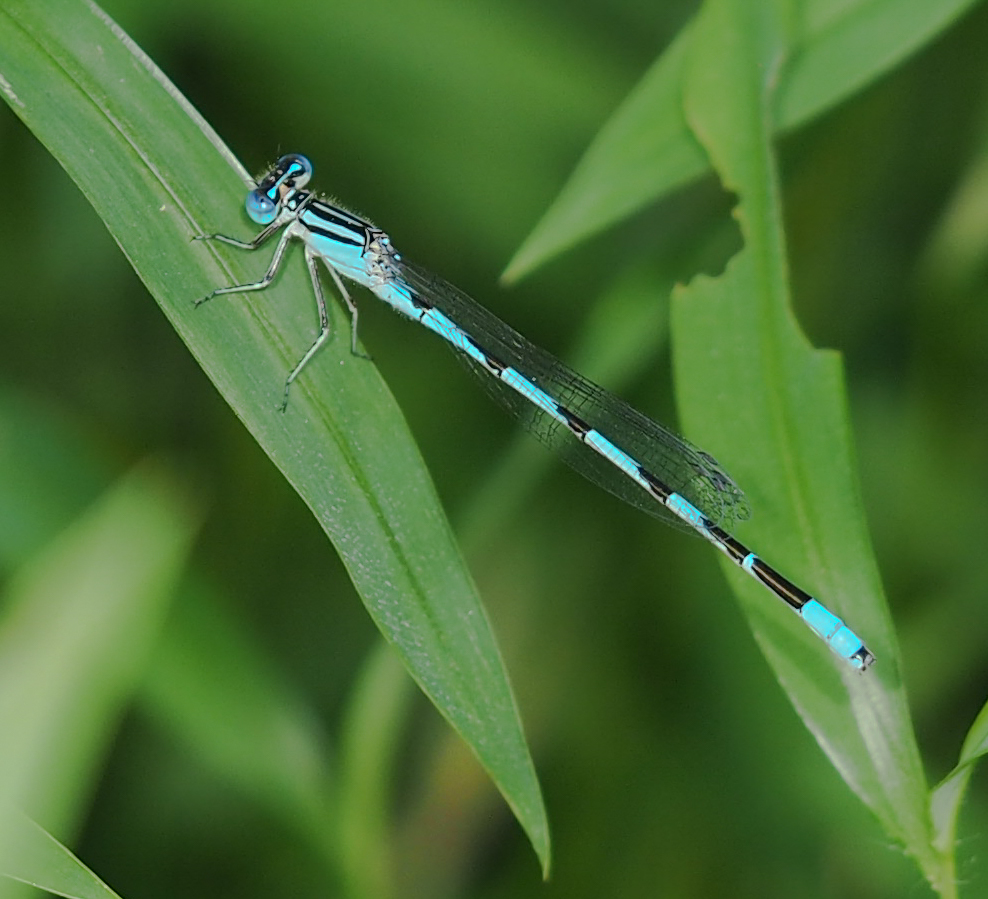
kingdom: Animalia
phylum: Arthropoda
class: Insecta
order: Odonata
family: Coenagrionidae
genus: Enallagma
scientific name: Enallagma durum
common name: Big bluet
